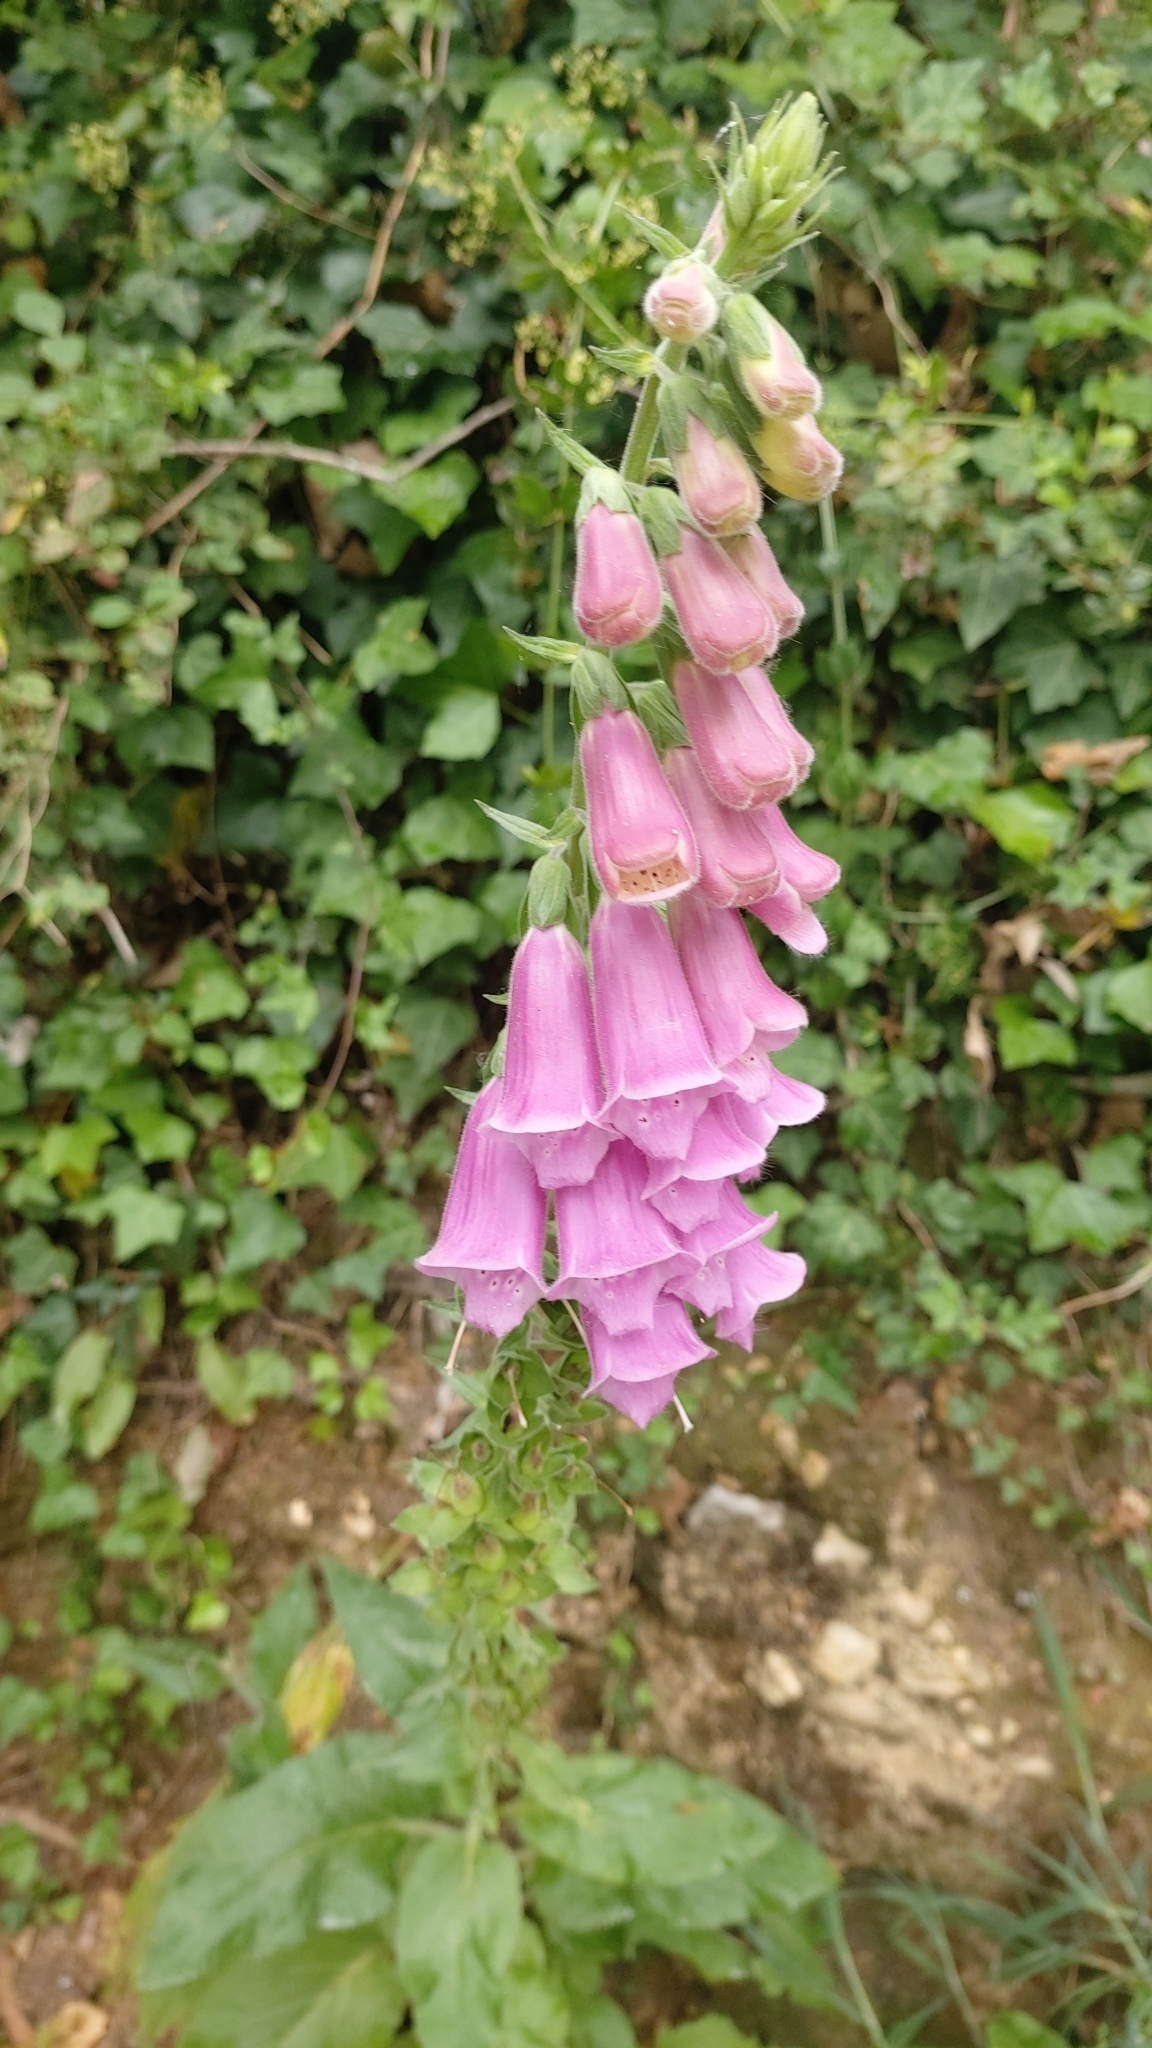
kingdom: Plantae
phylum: Tracheophyta
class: Magnoliopsida
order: Lamiales
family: Plantaginaceae
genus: Digitalis
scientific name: Digitalis purpurea
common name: Foxglove
